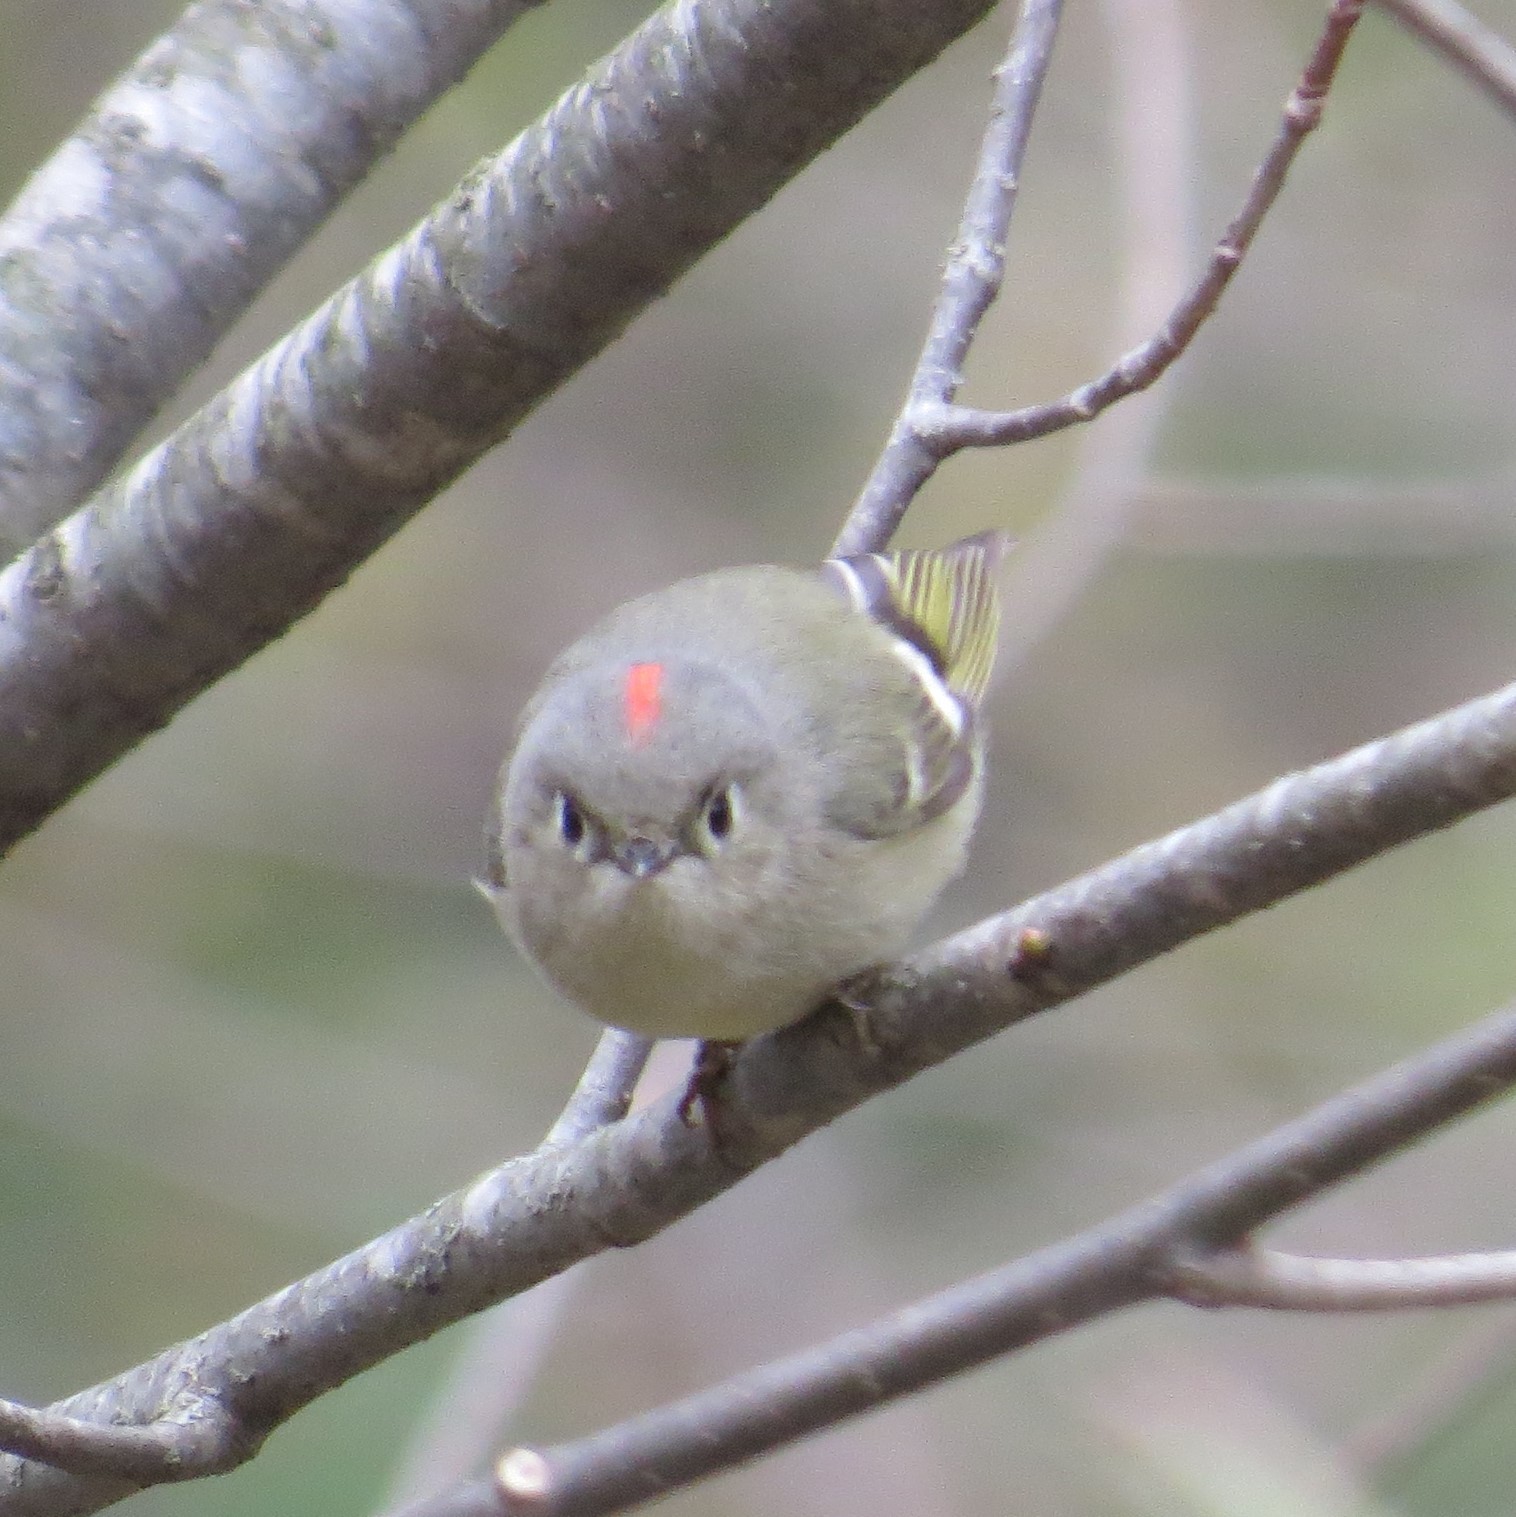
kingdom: Animalia
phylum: Chordata
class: Aves
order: Passeriformes
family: Regulidae
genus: Regulus
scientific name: Regulus calendula
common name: Ruby-crowned kinglet
